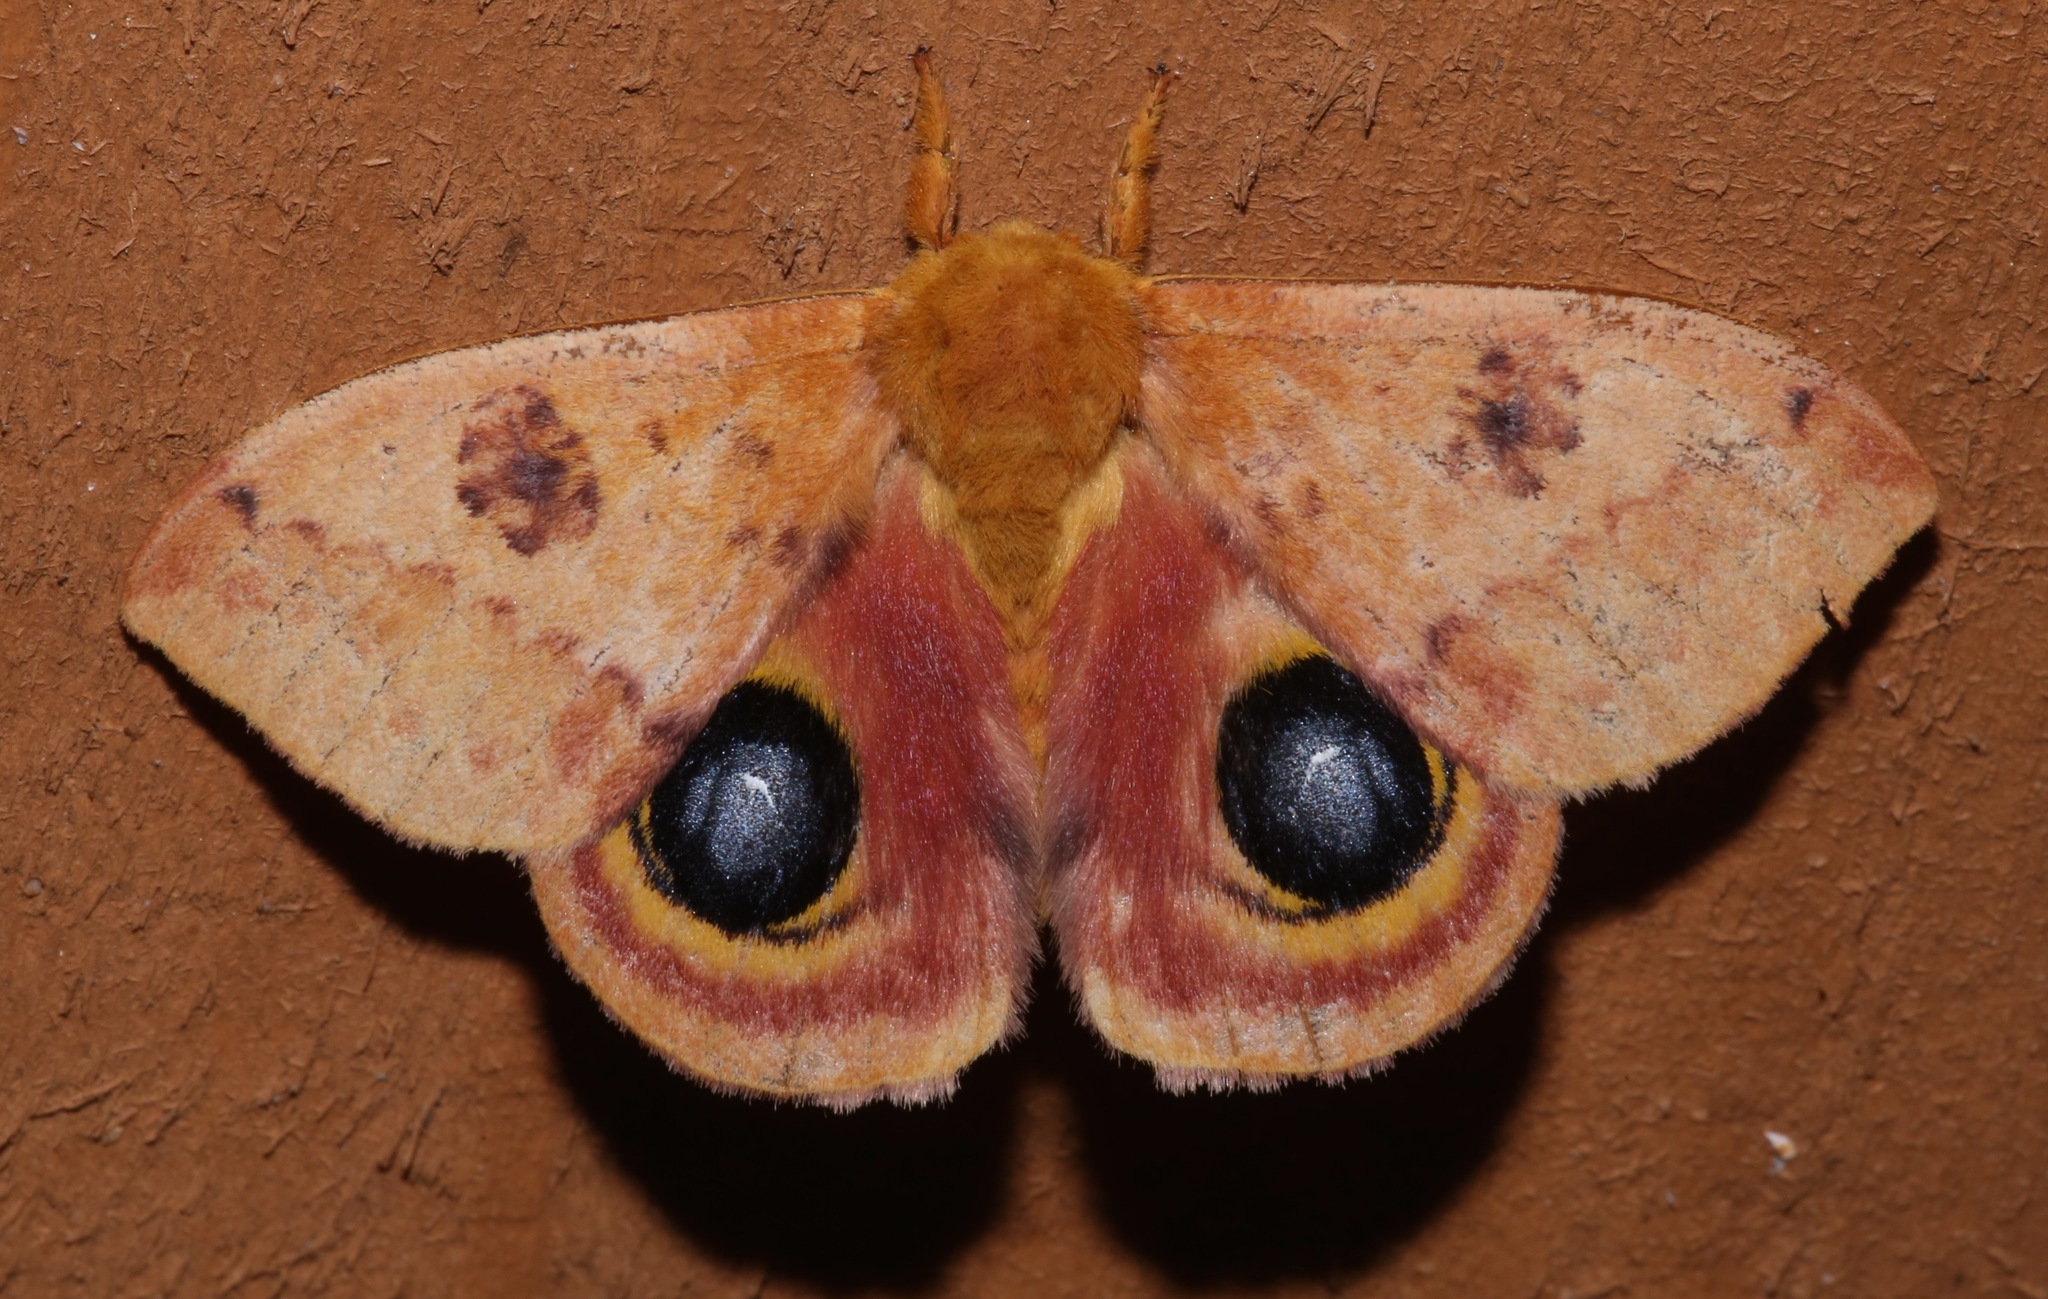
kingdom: Animalia
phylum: Arthropoda
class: Insecta
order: Lepidoptera
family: Saturniidae
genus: Automeris
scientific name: Automeris io
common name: Io moth
